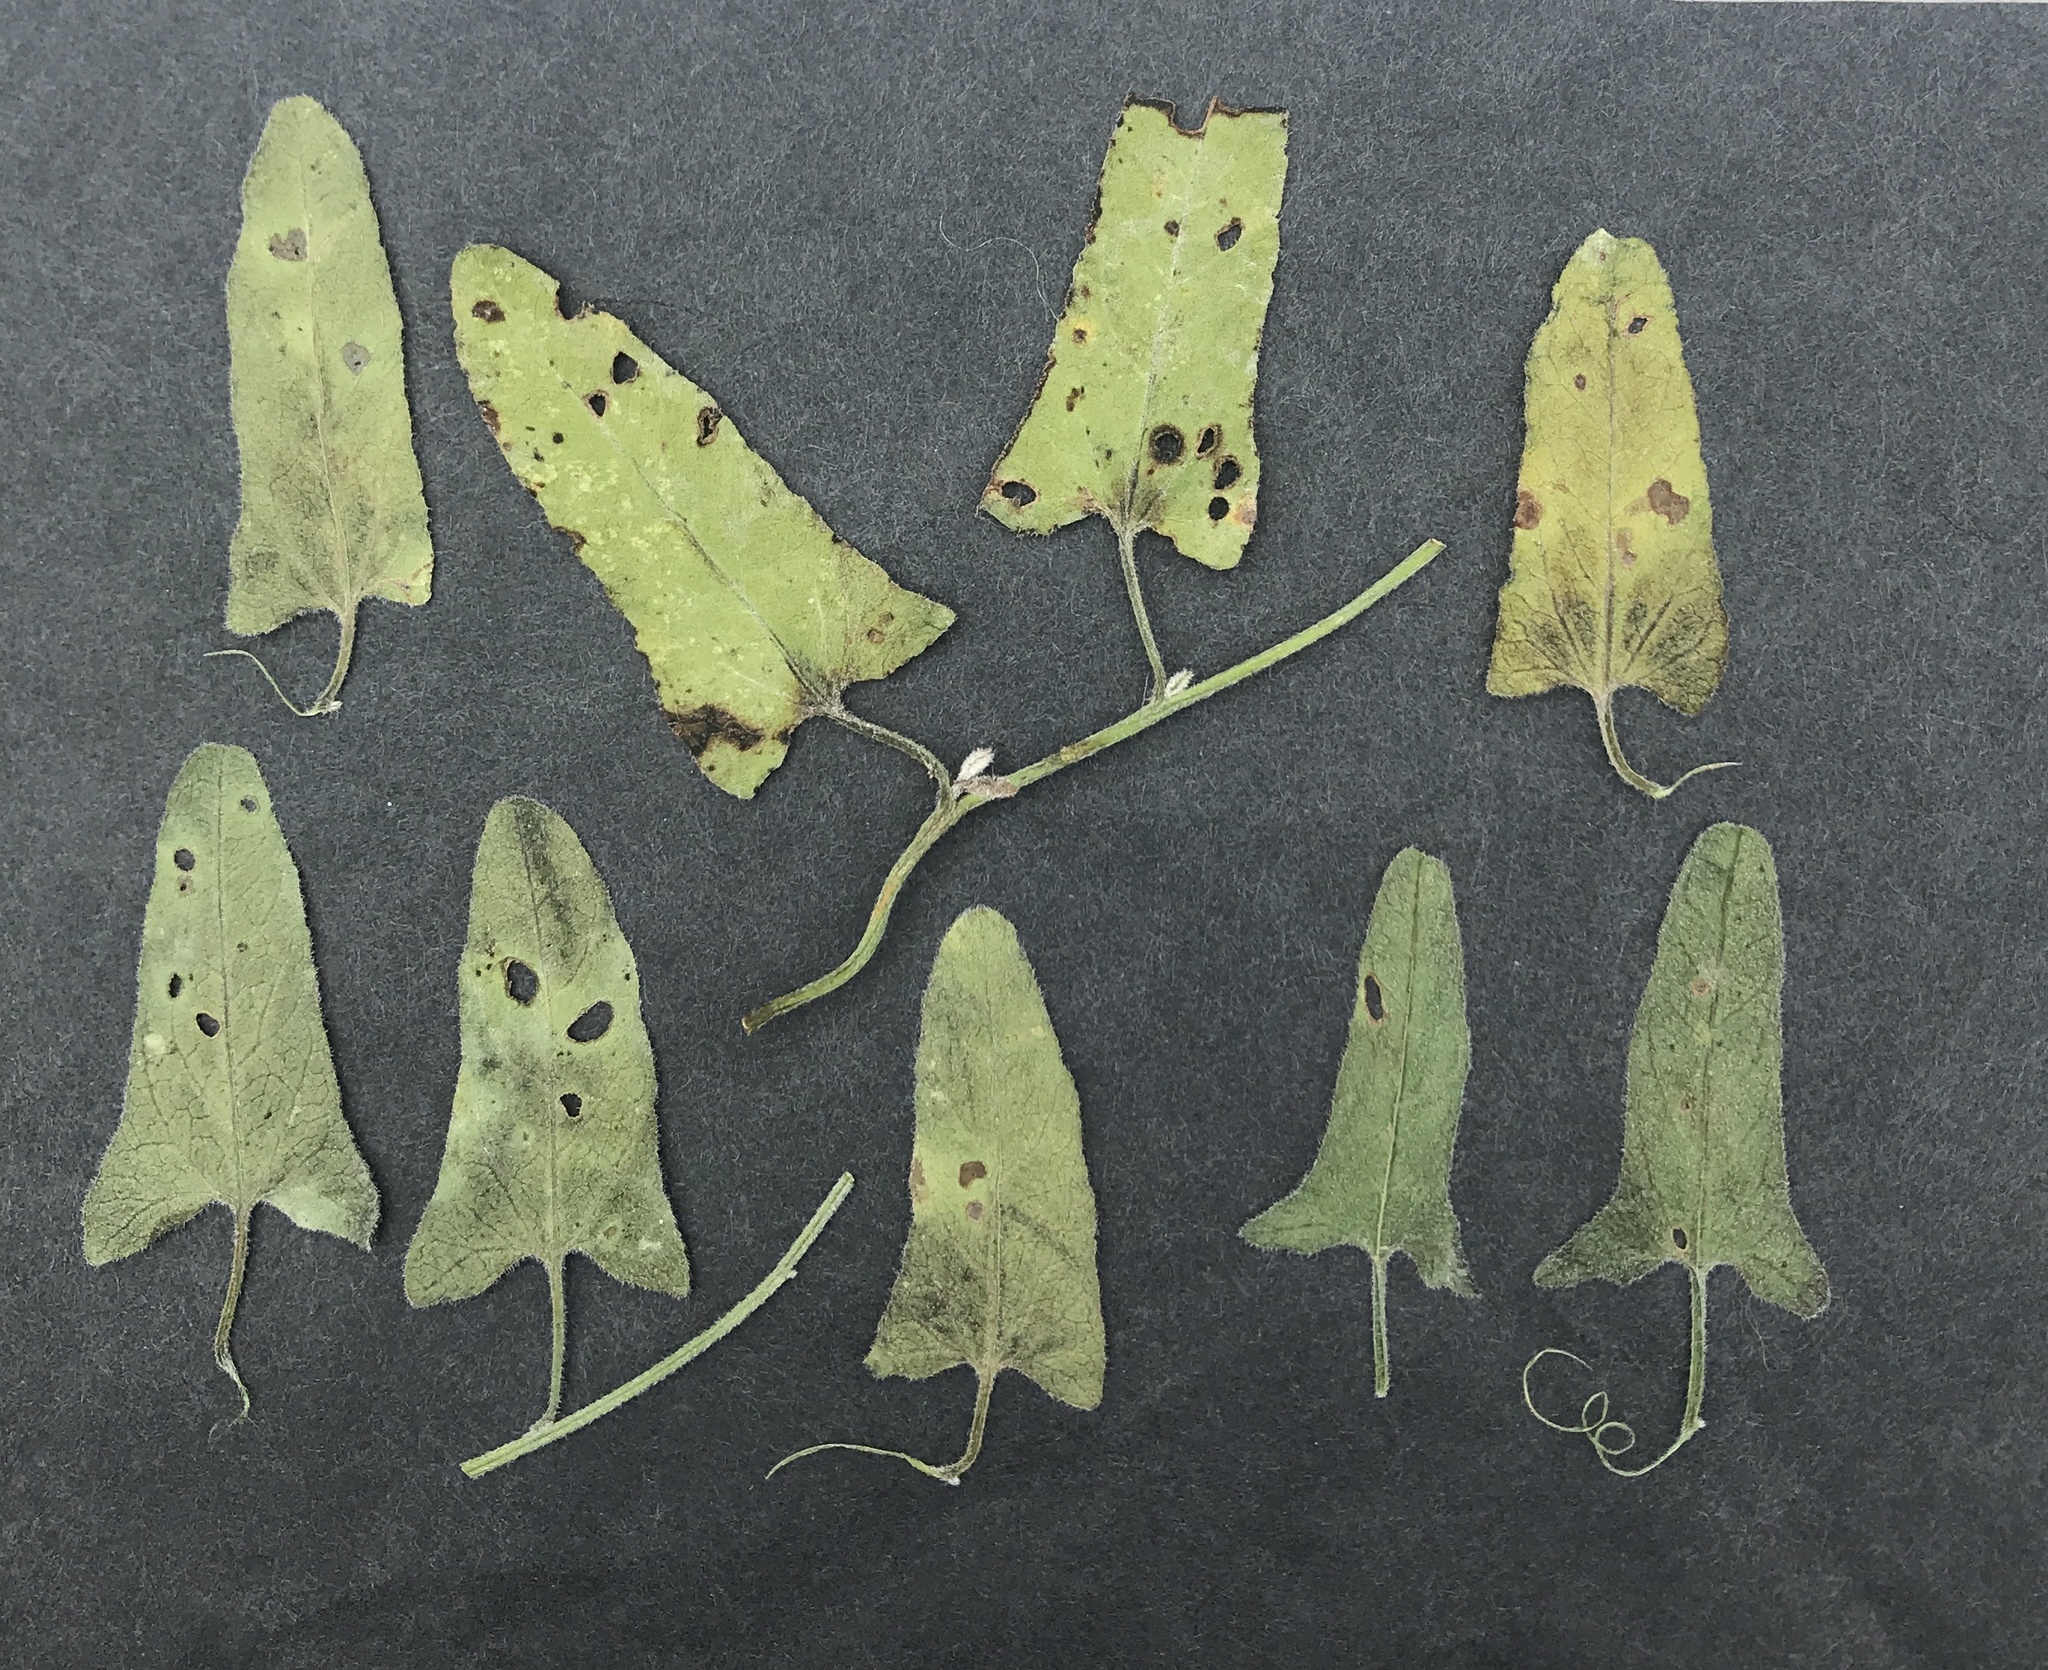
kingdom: Plantae
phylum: Tracheophyta
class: Magnoliopsida
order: Solanales
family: Convolvulaceae
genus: Convolvulus
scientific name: Convolvulus arvensis
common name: Field bindweed
